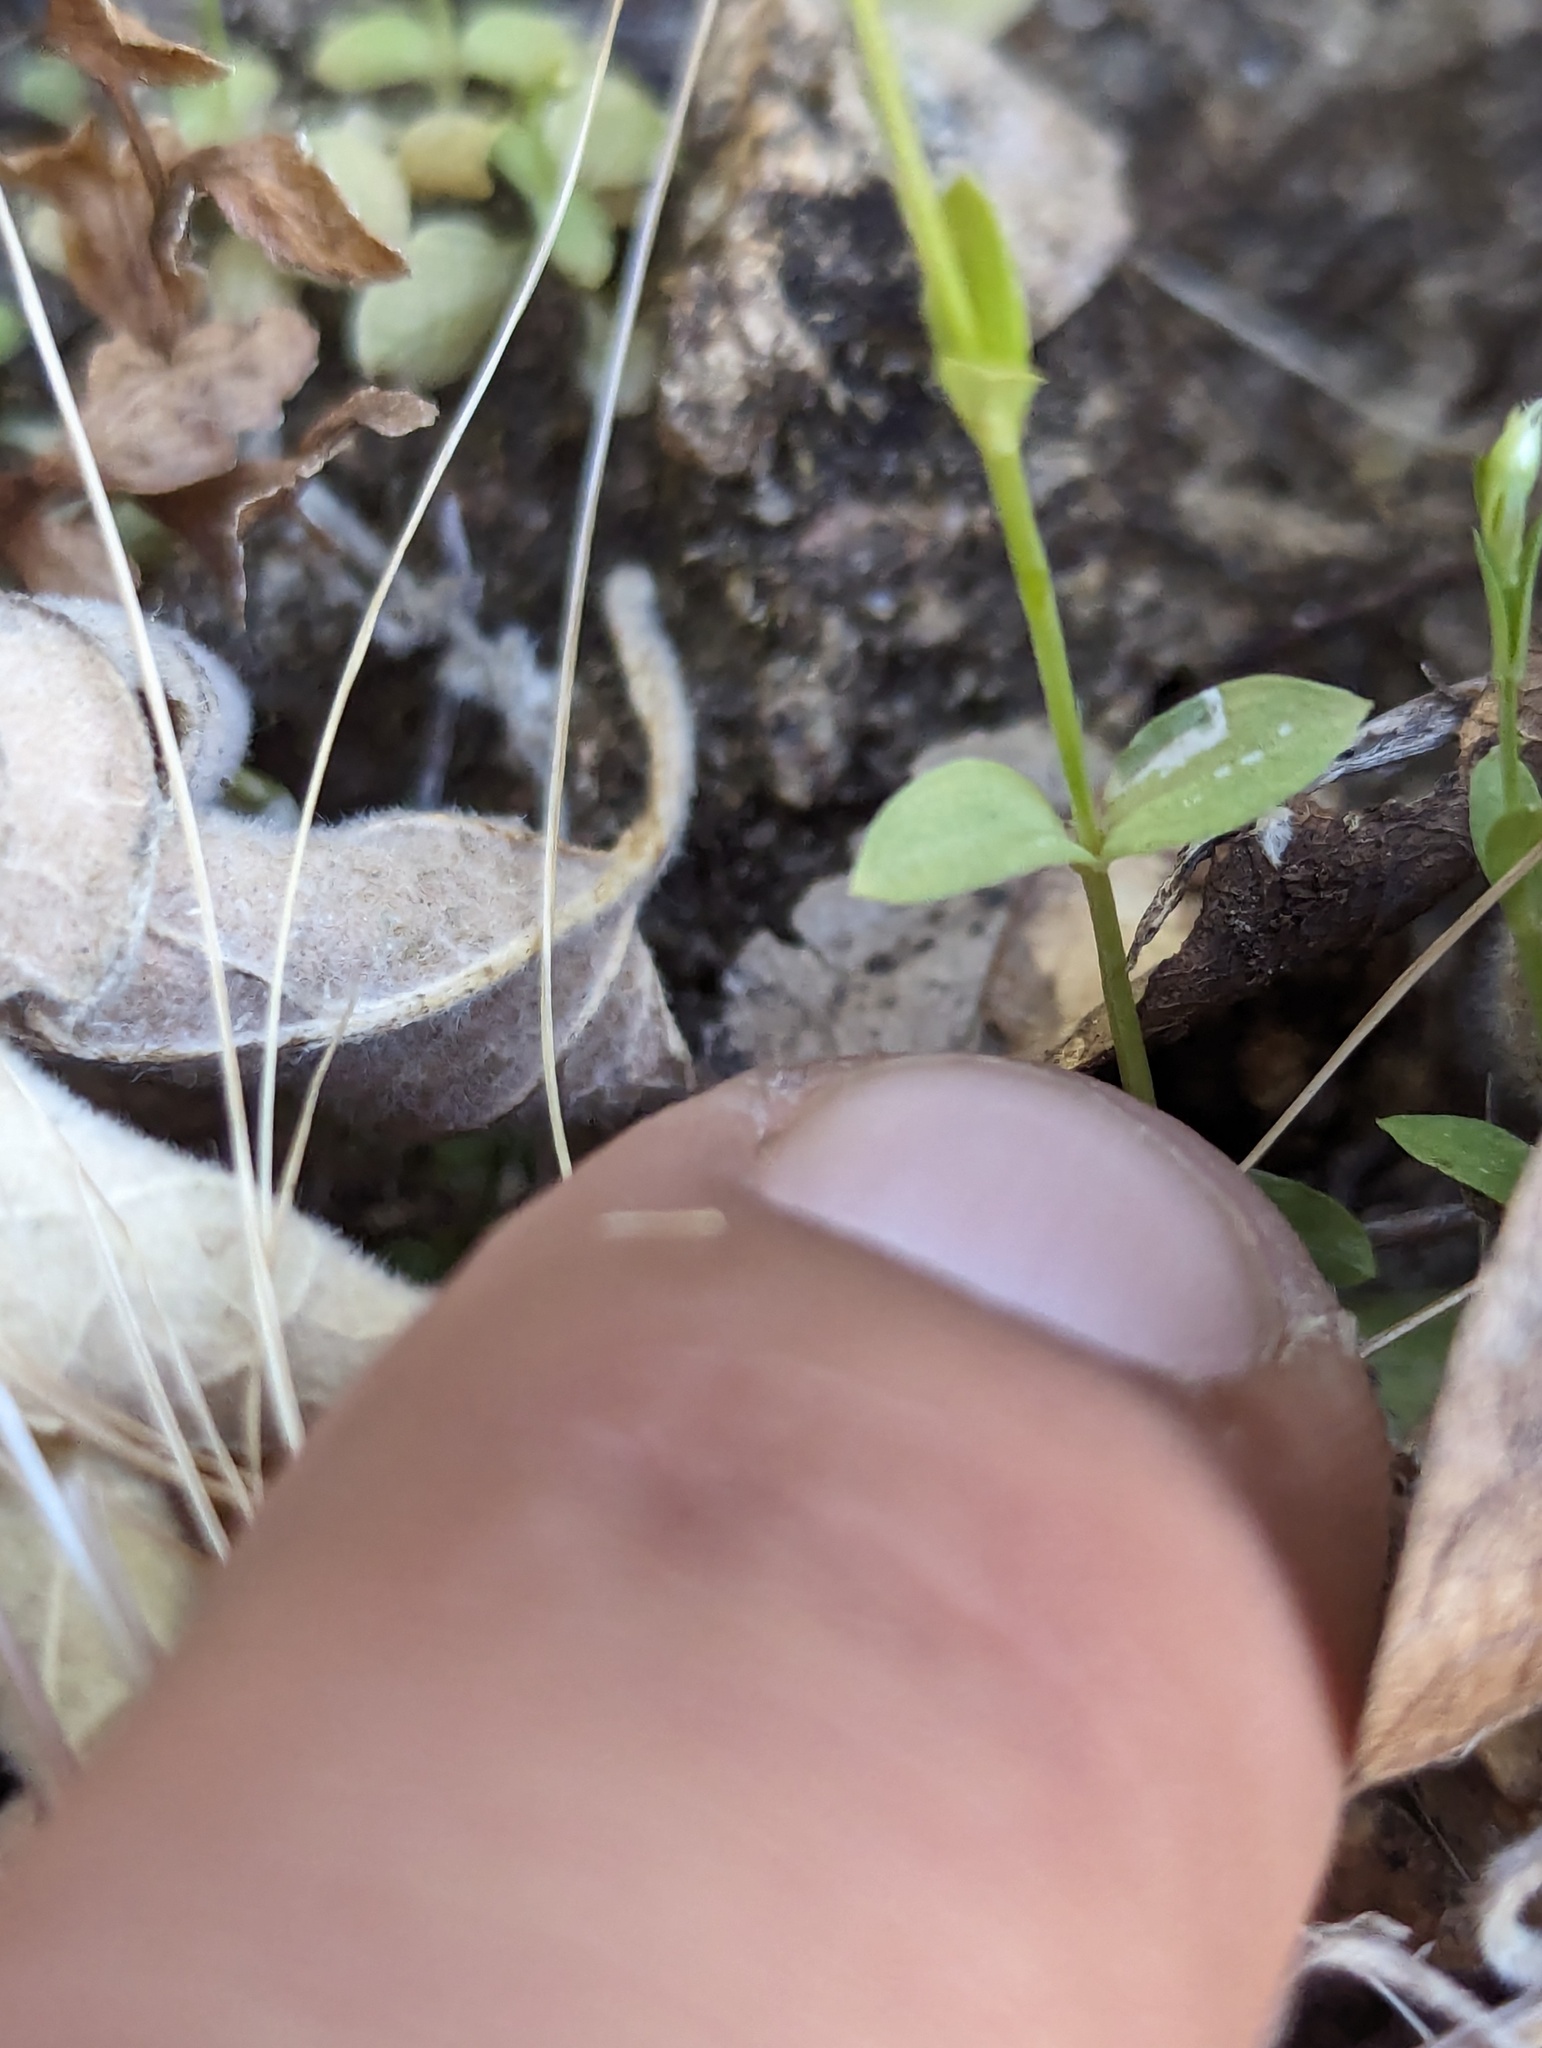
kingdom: Plantae
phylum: Tracheophyta
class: Magnoliopsida
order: Gentianales
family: Gentianaceae
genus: Centaurium
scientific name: Centaurium capense
